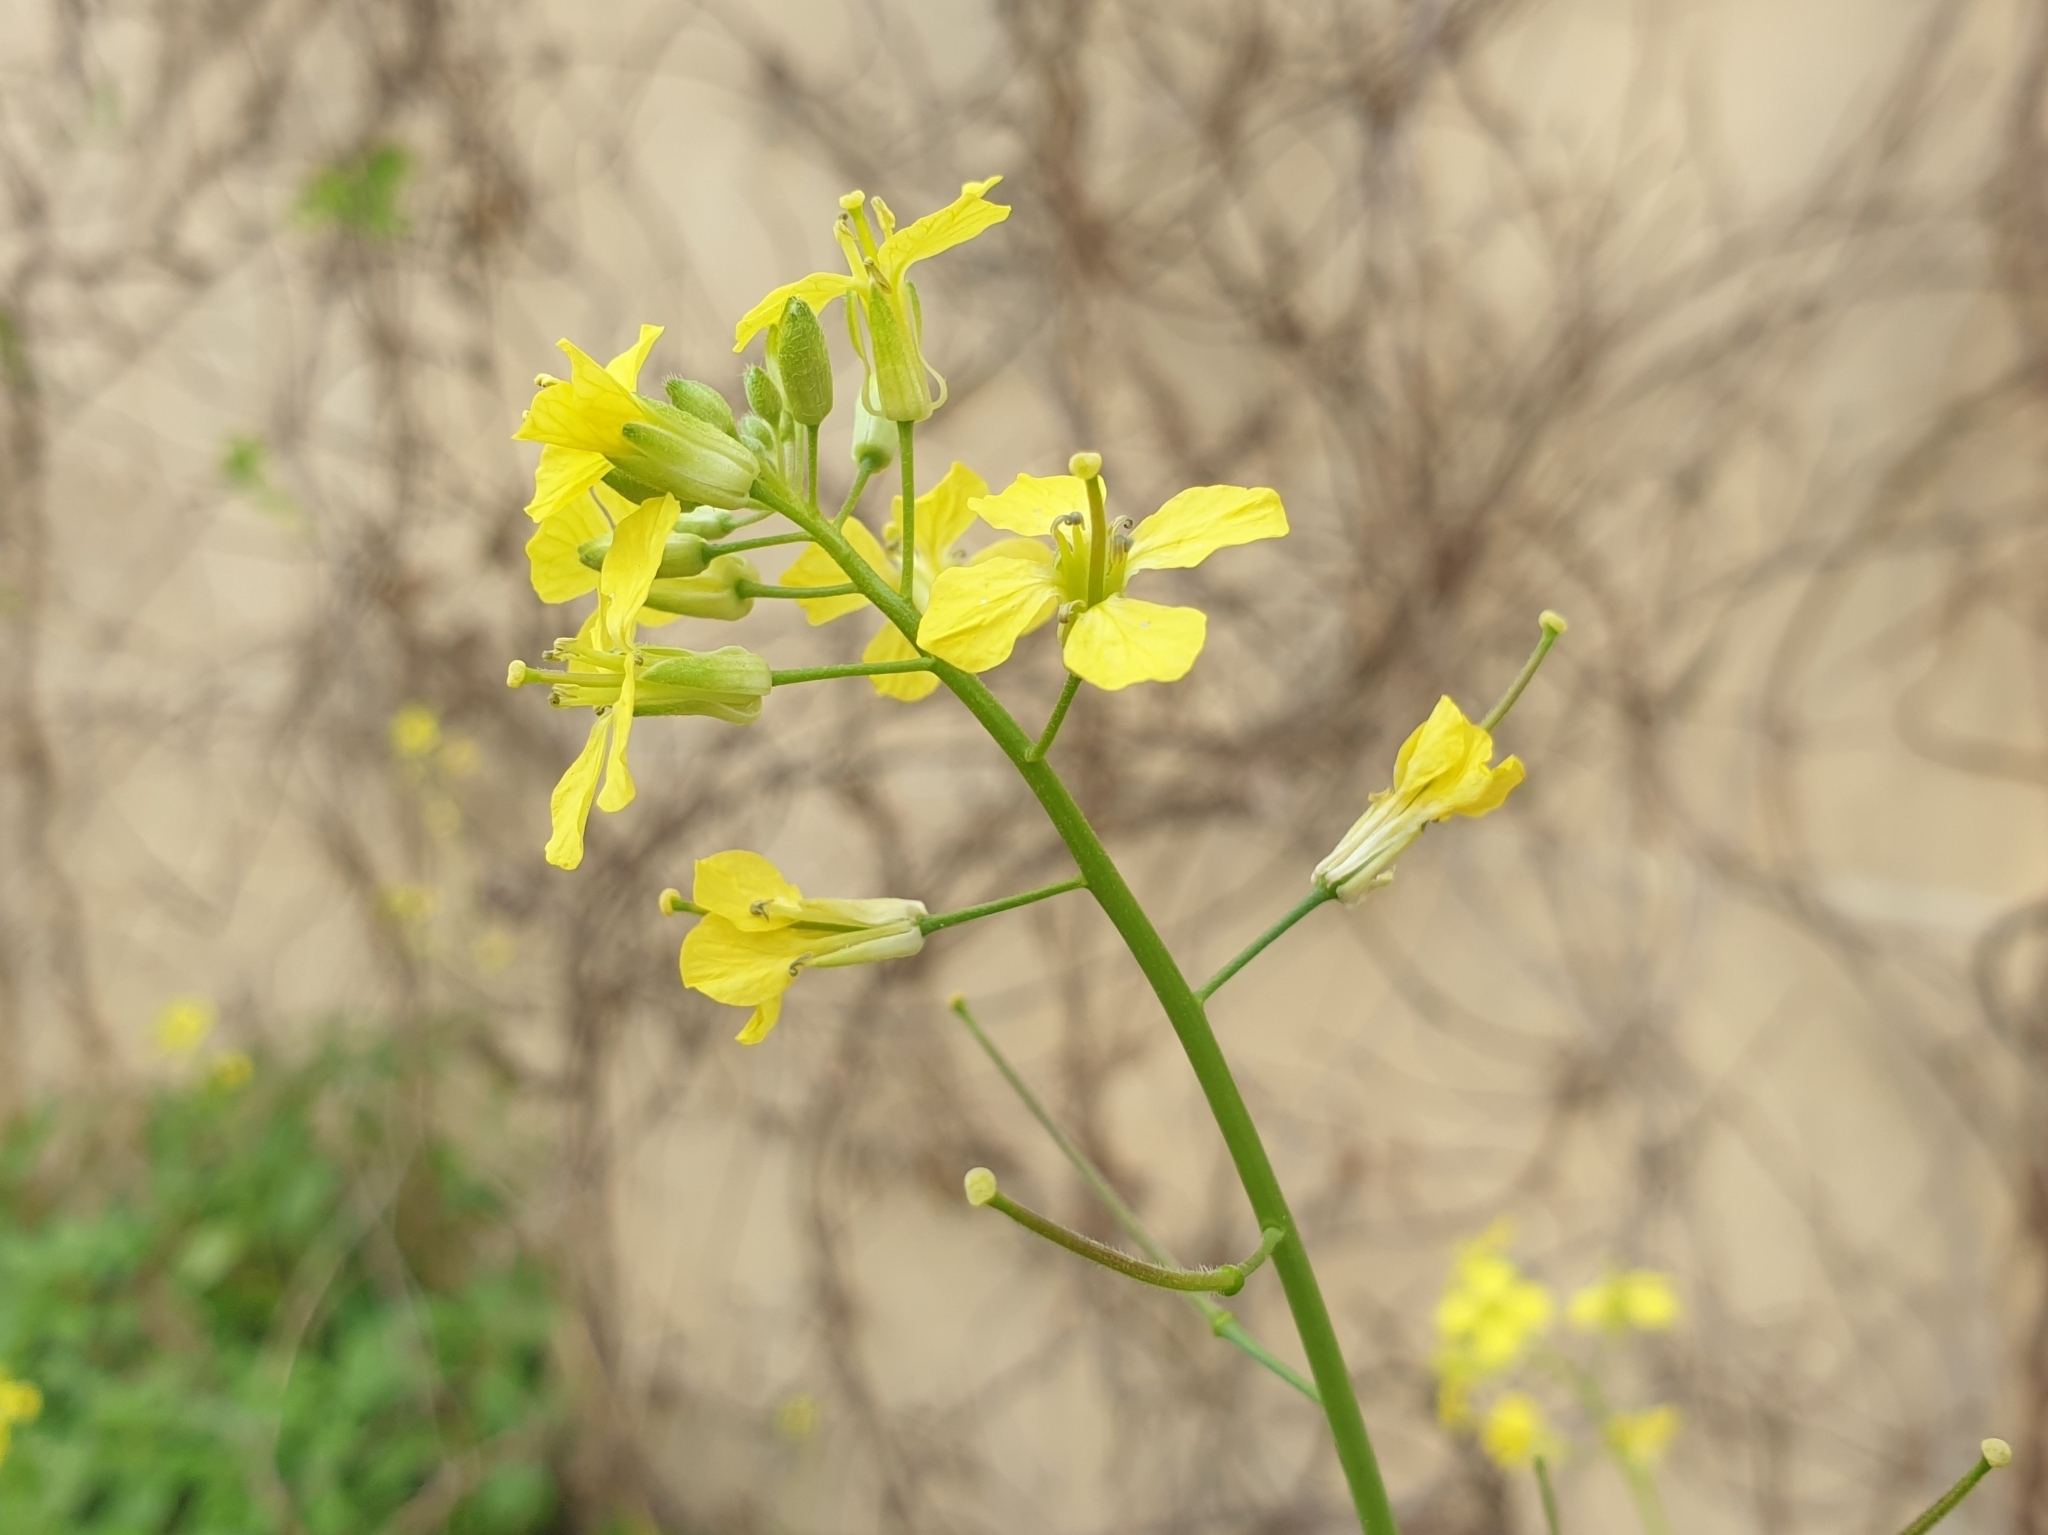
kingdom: Plantae
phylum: Tracheophyta
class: Magnoliopsida
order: Brassicales
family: Brassicaceae
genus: Sisymbrium
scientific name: Sisymbrium orientale
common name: Eastern rocket
